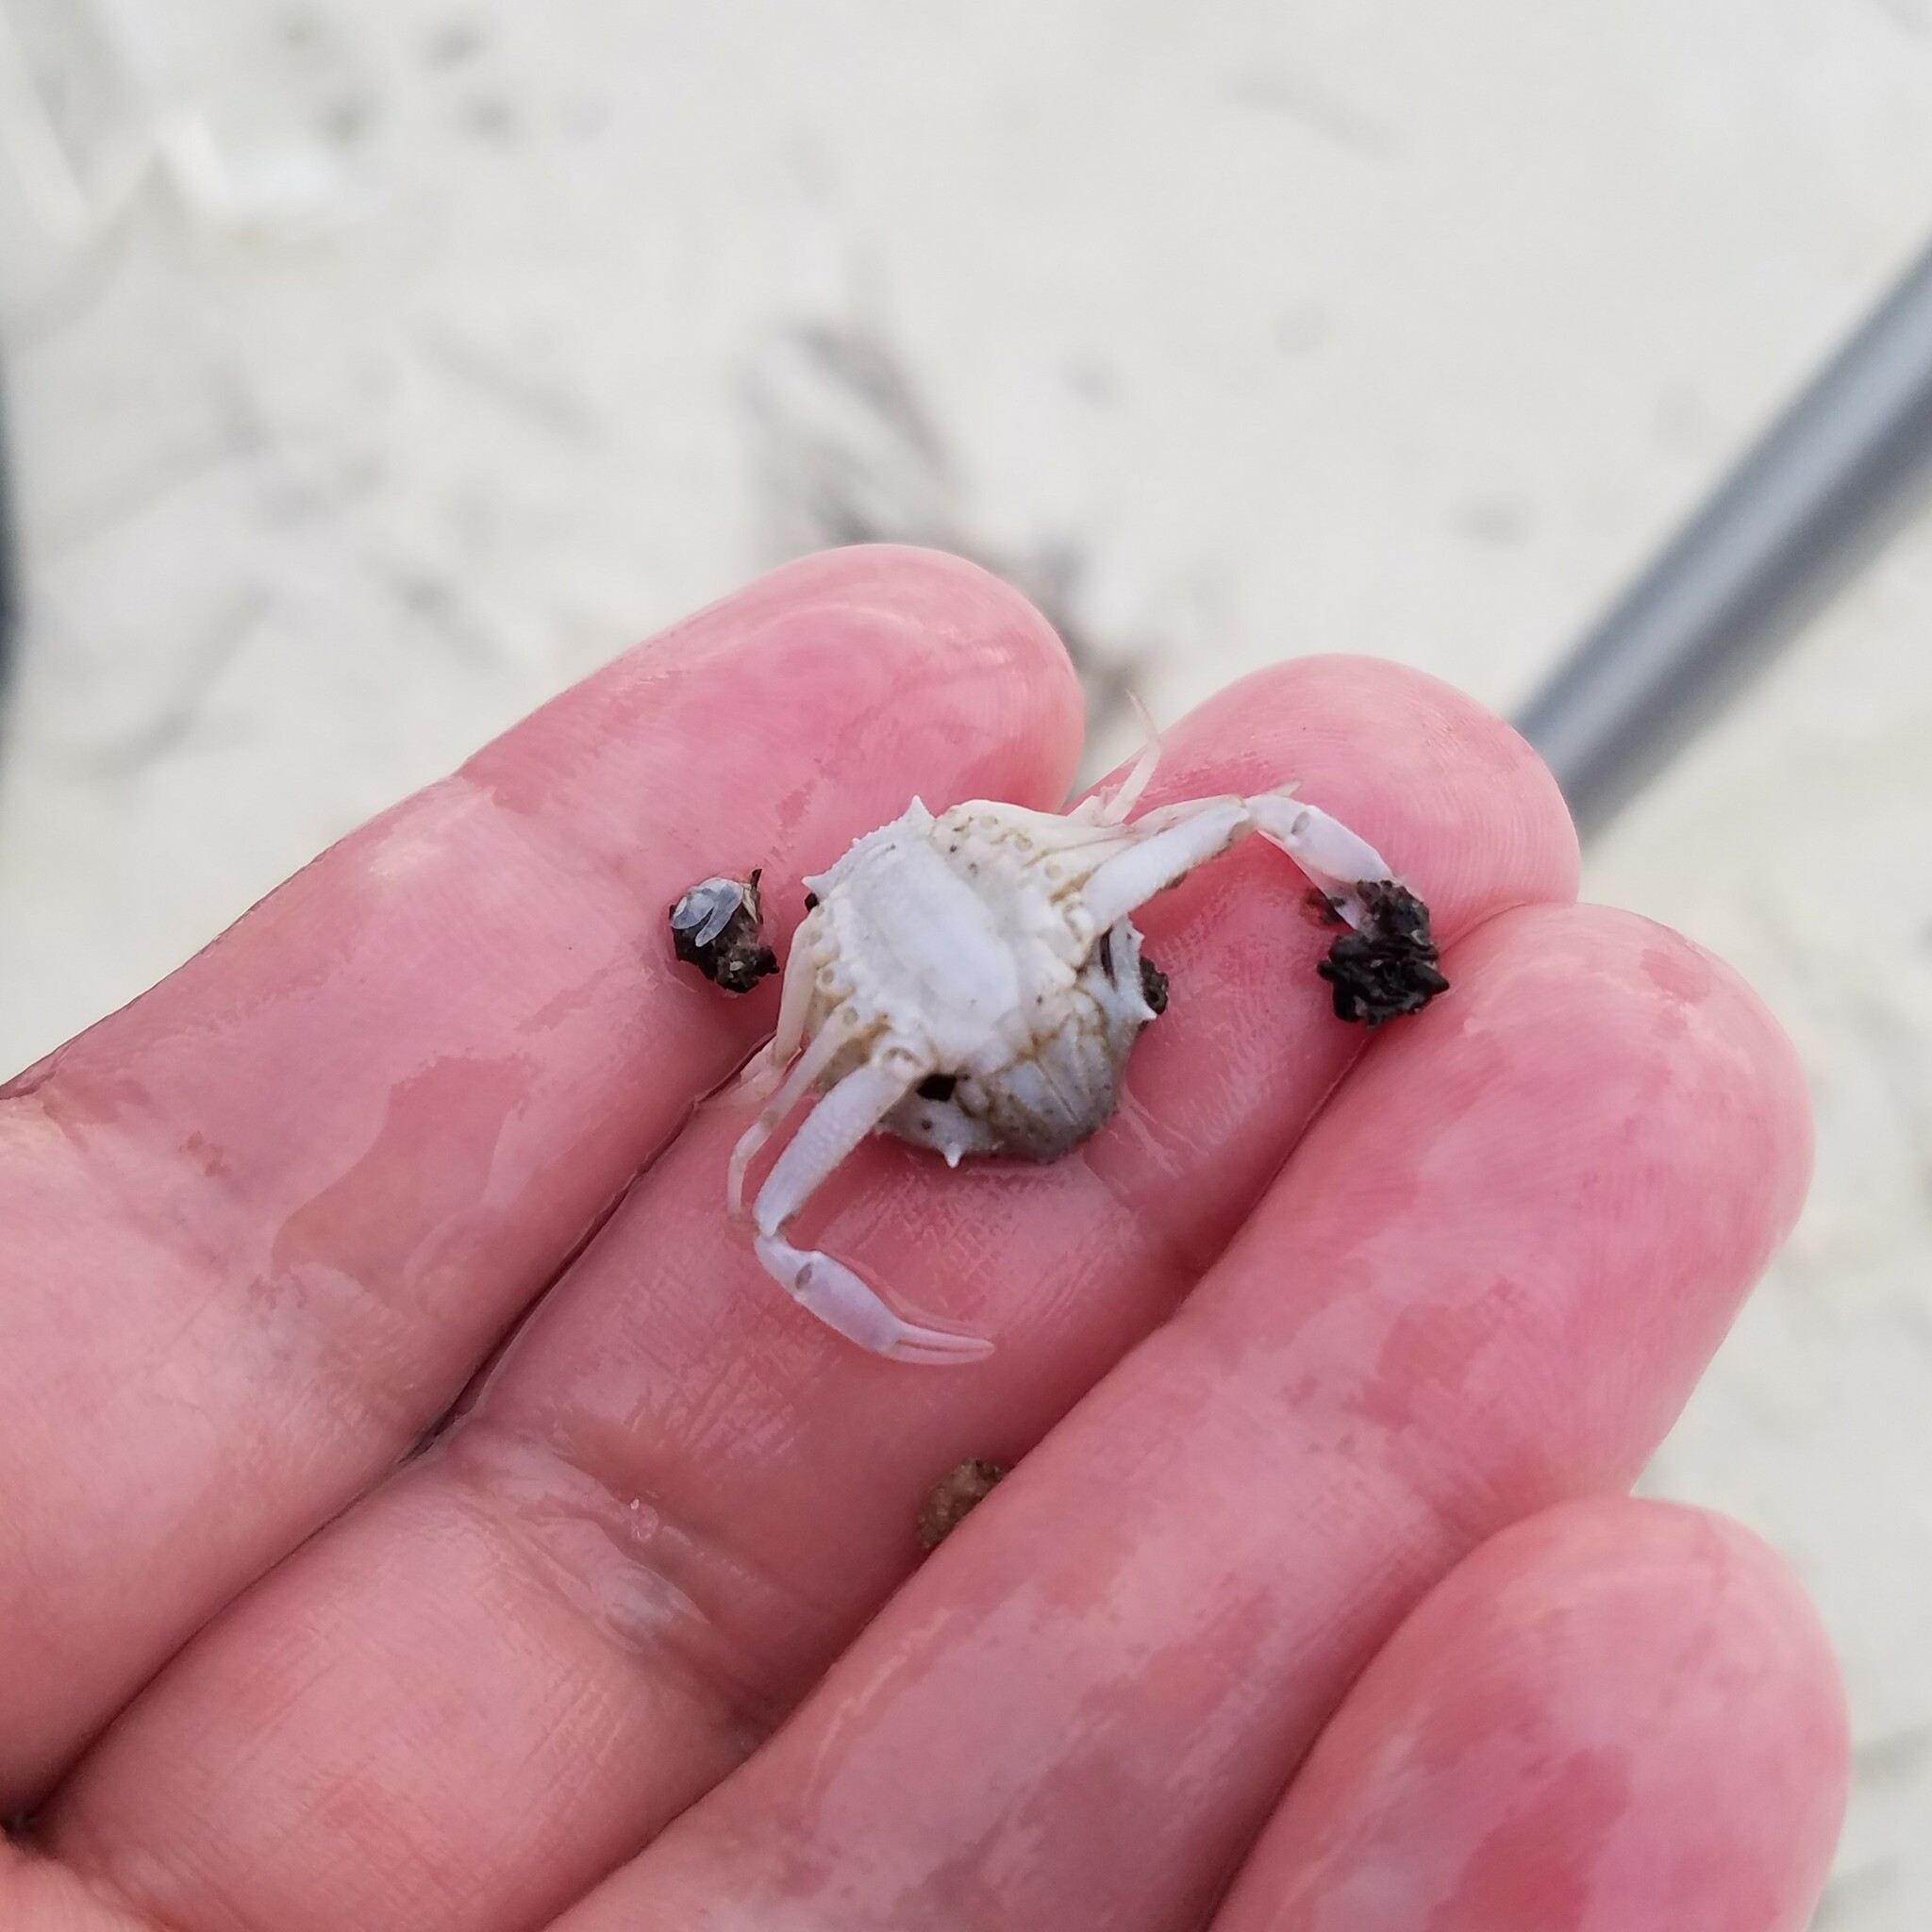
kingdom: Animalia
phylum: Arthropoda
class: Malacostraca
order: Decapoda
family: Leucosiidae
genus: Persephona
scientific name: Persephona crinita
